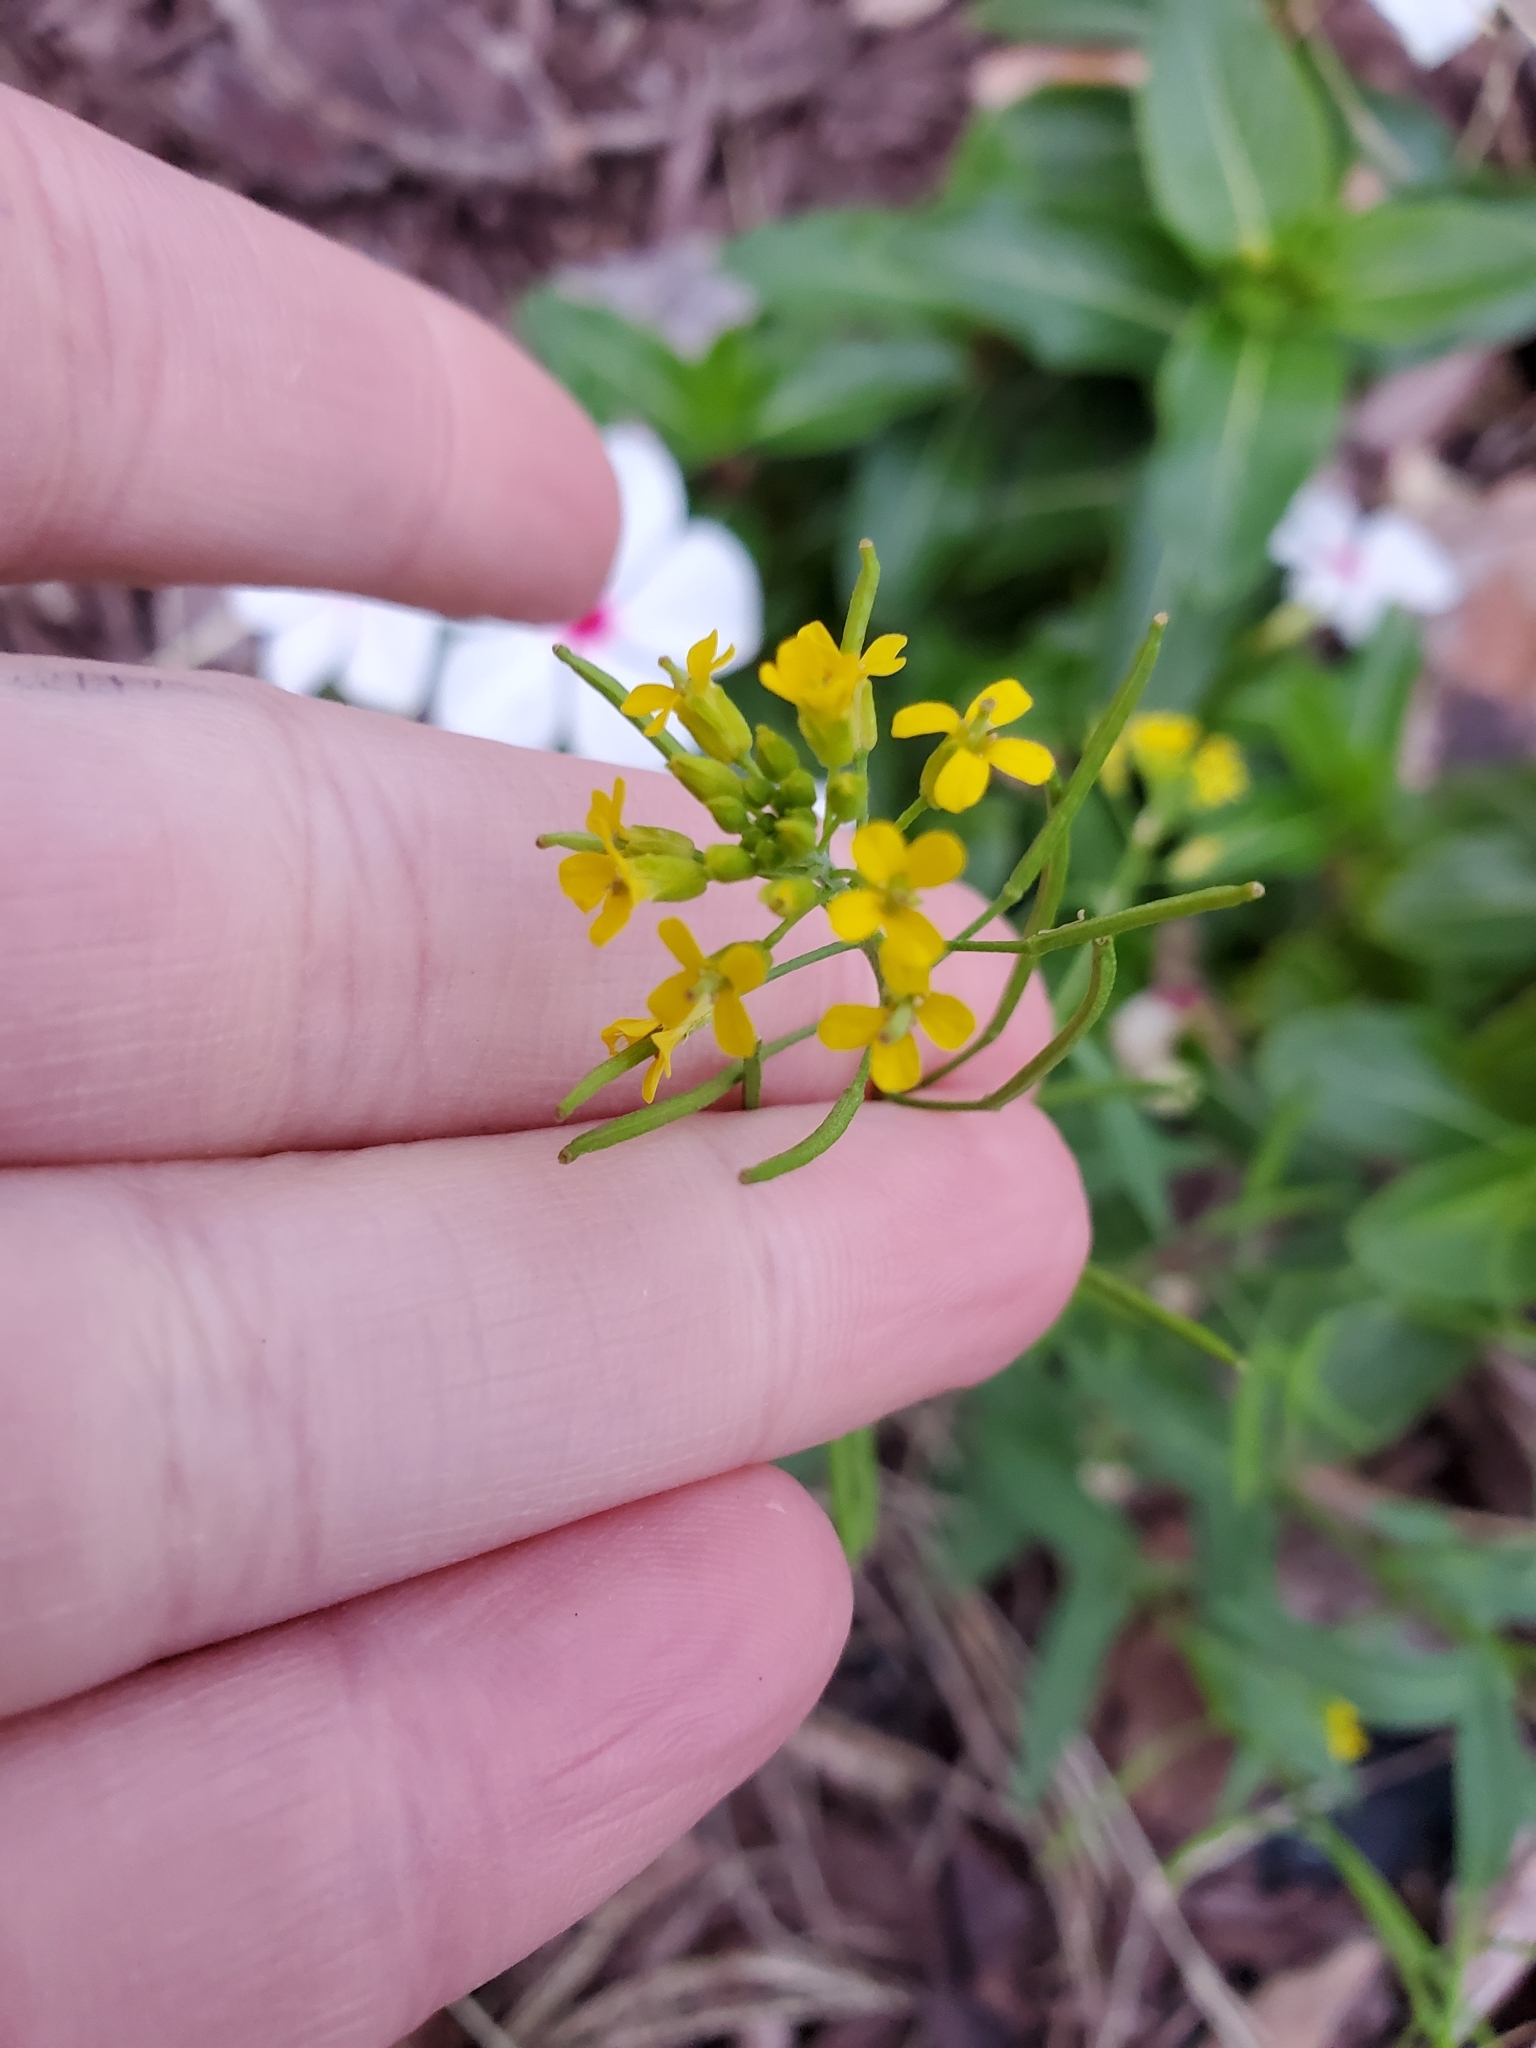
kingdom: Plantae
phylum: Tracheophyta
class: Magnoliopsida
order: Brassicales
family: Brassicaceae
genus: Erysimum
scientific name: Erysimum cheiranthoides
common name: Treacle mustard
